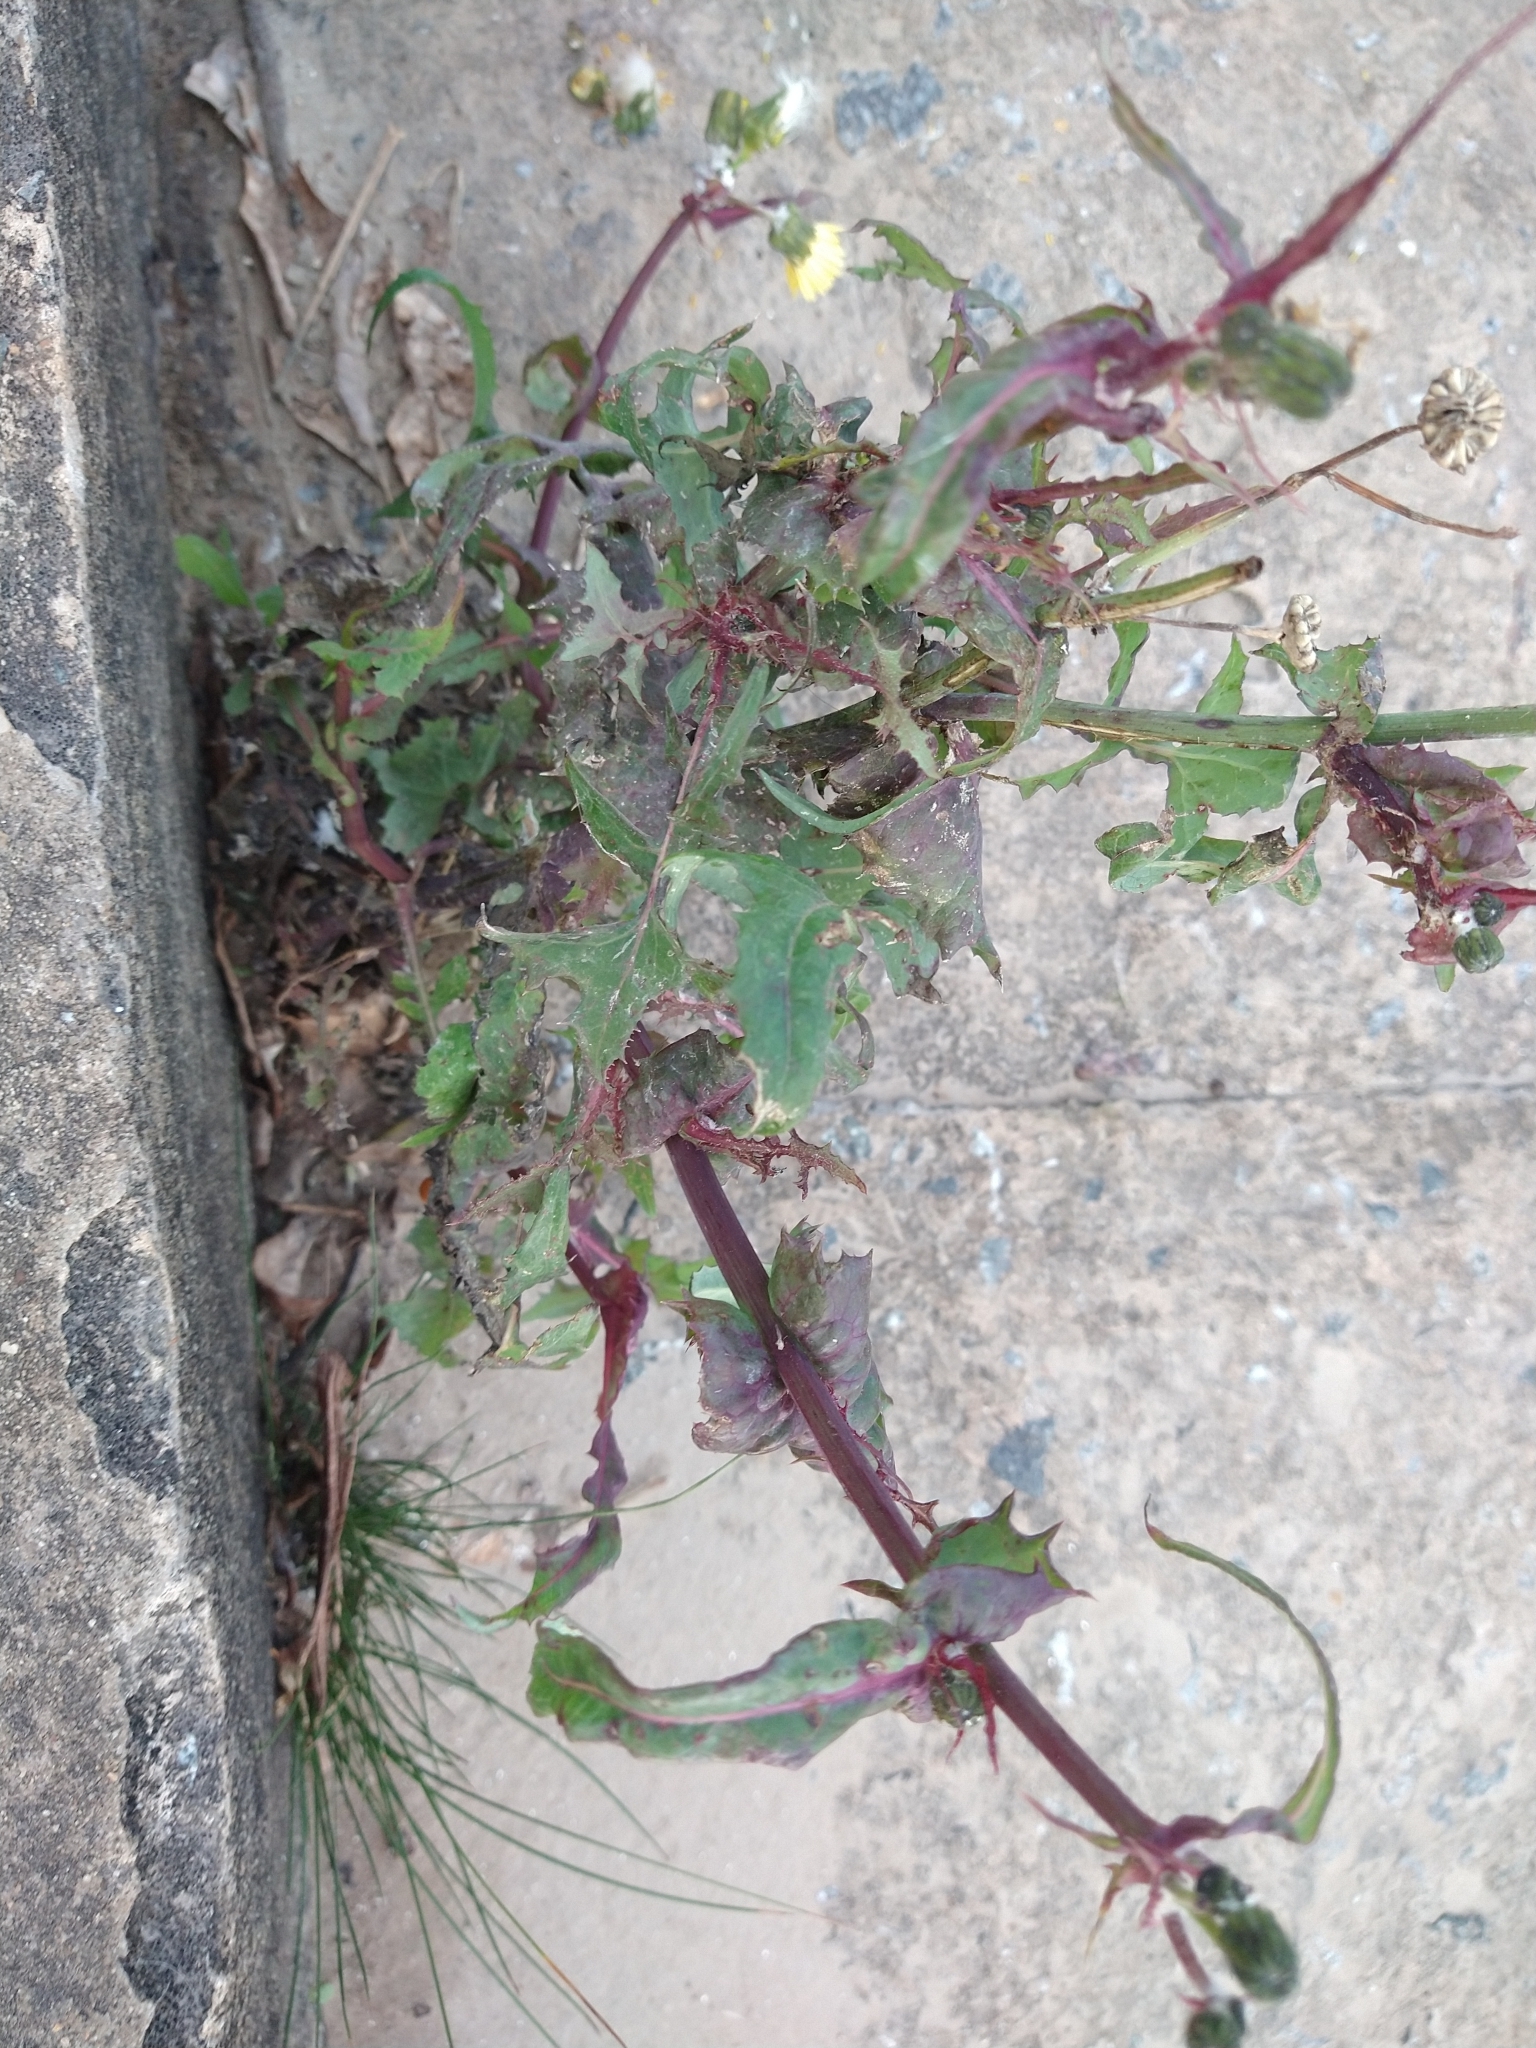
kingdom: Plantae
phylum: Tracheophyta
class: Magnoliopsida
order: Asterales
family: Asteraceae
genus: Sonchus
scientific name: Sonchus oleraceus
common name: Common sowthistle
